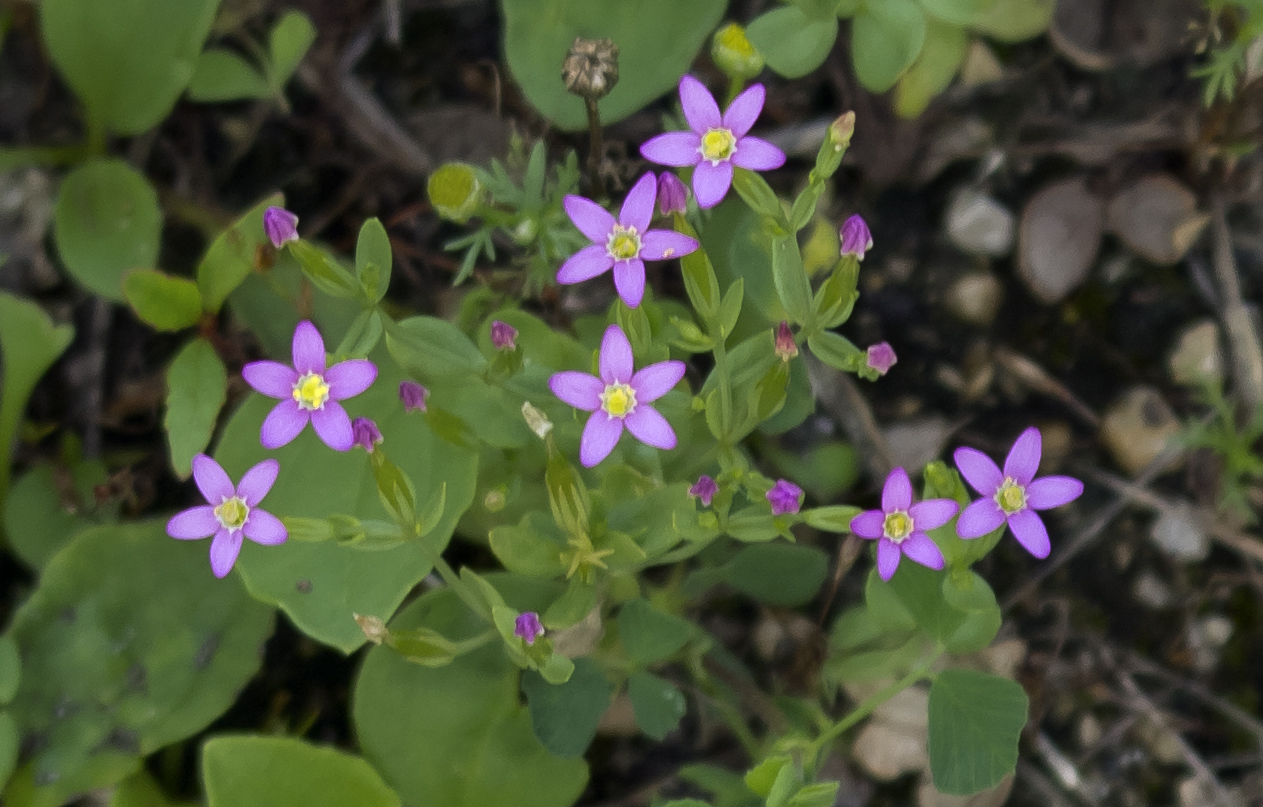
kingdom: Plantae
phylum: Tracheophyta
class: Magnoliopsida
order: Gentianales
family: Gentianaceae
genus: Centaurium
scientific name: Centaurium pulchellum
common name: Lesser centaury
